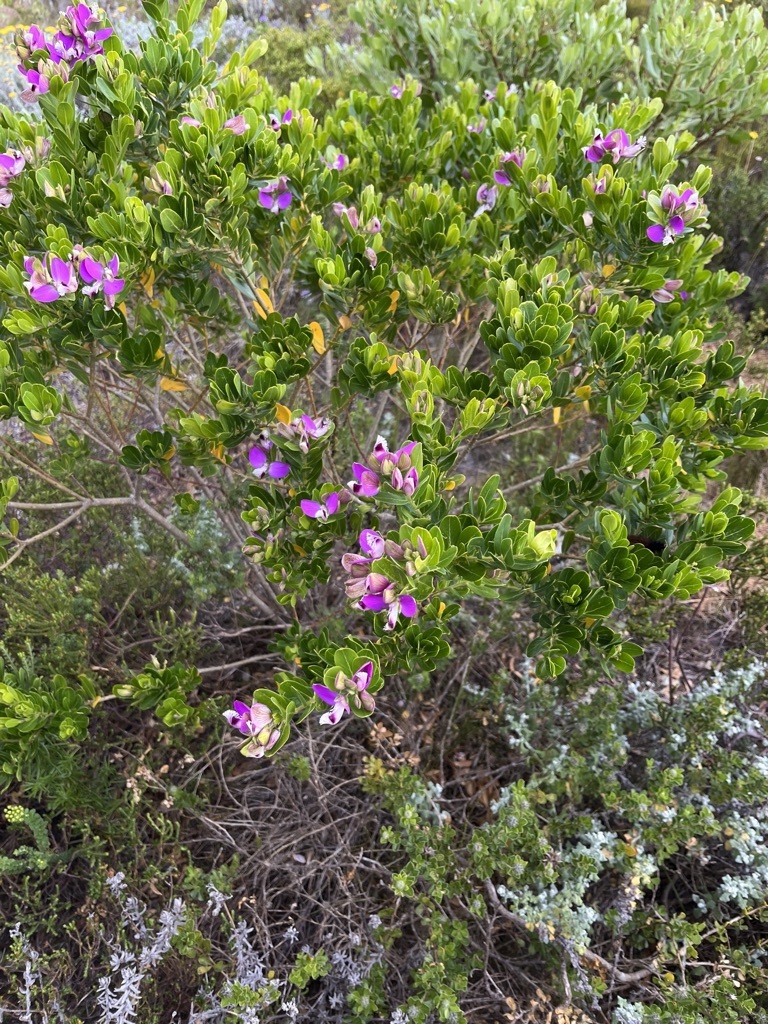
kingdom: Plantae
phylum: Tracheophyta
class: Magnoliopsida
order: Fabales
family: Polygalaceae
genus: Polygala
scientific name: Polygala myrtifolia
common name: Myrtle-leaf milkwort
